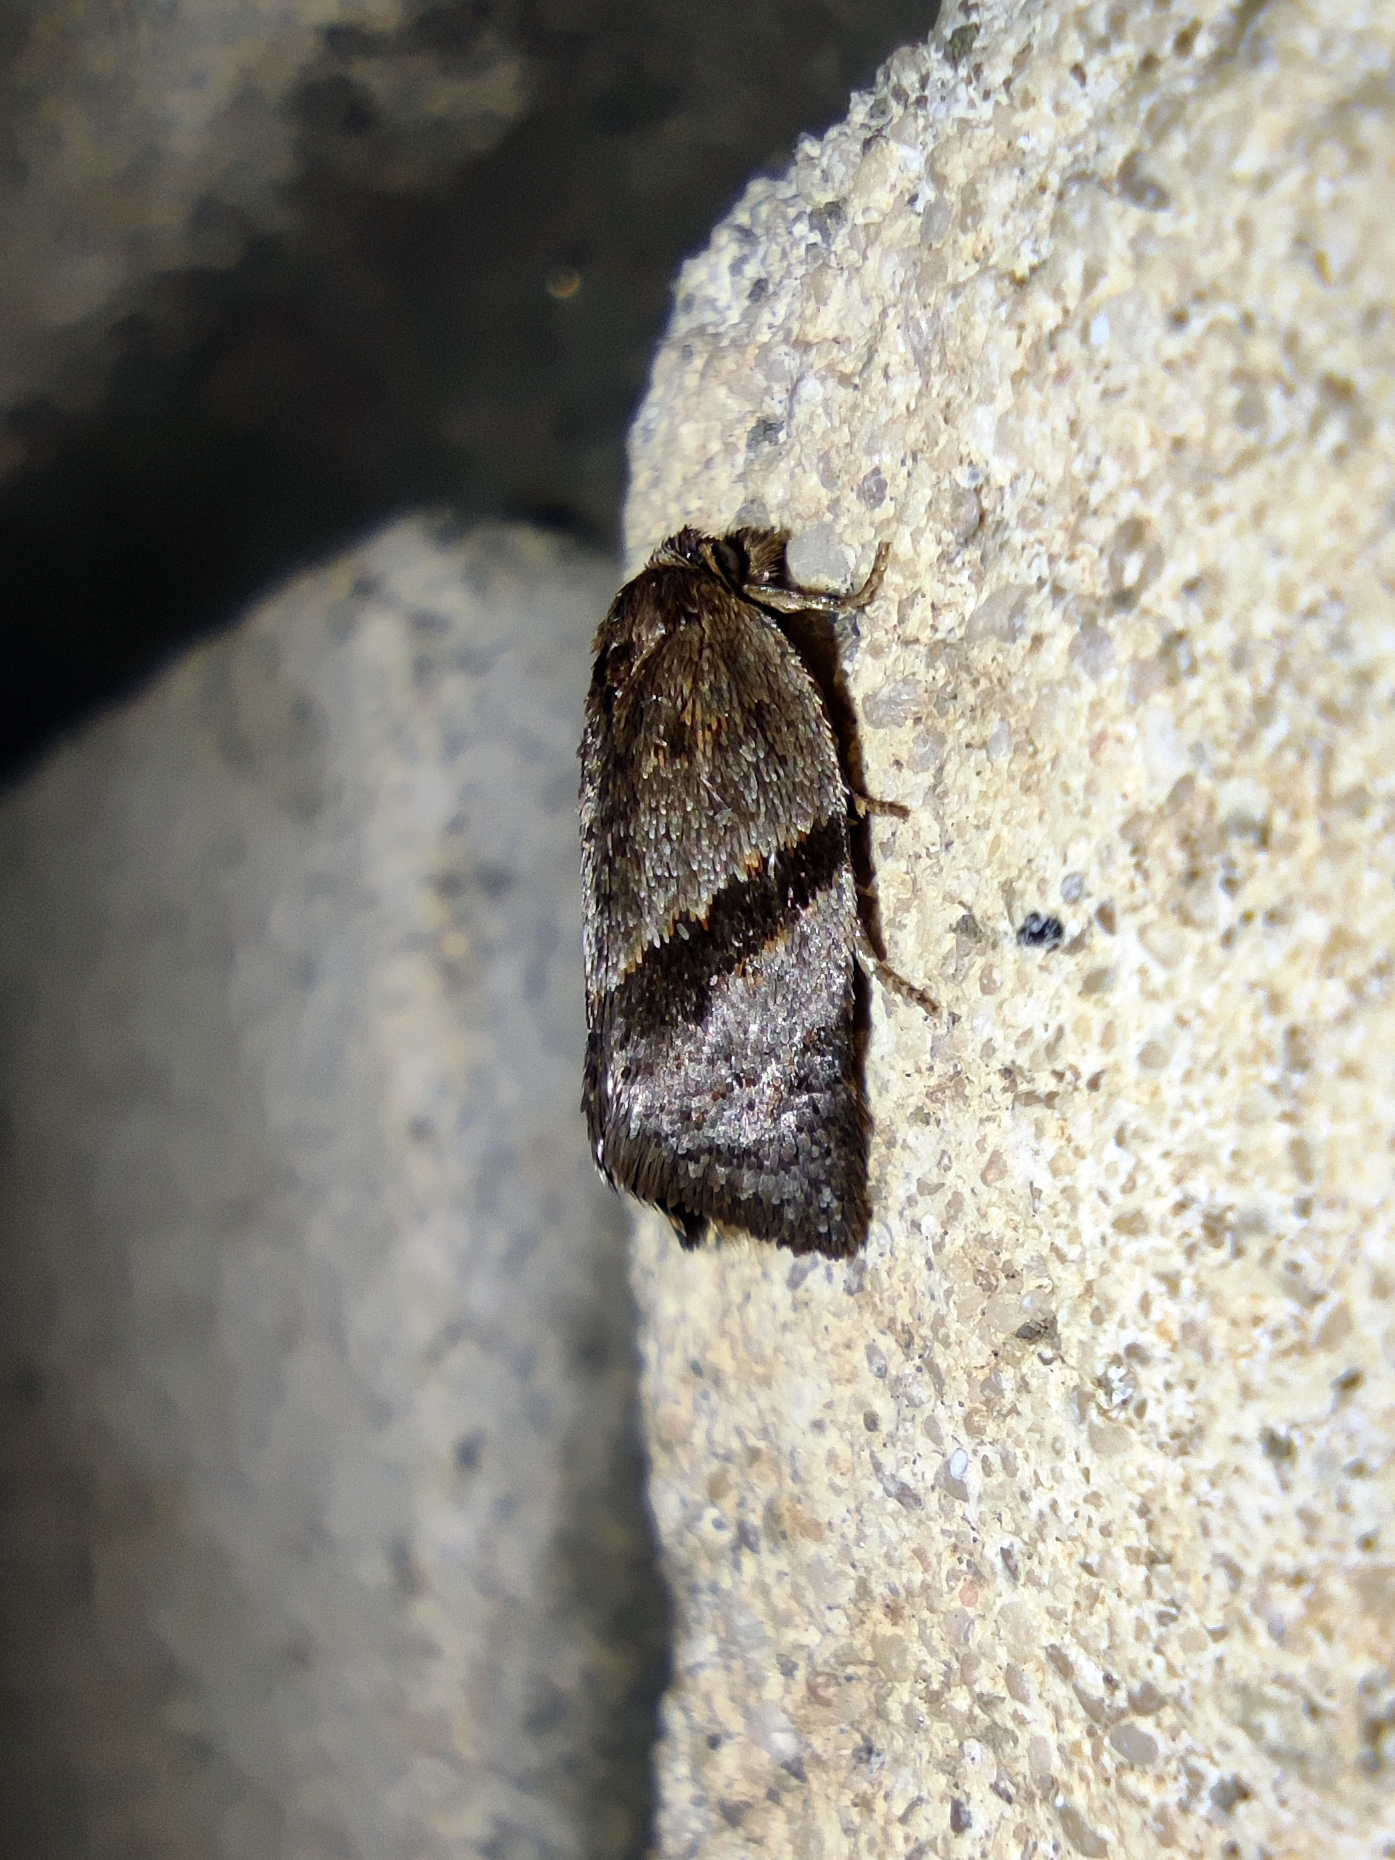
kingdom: Animalia
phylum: Arthropoda
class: Insecta
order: Lepidoptera
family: Tortricidae
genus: Philedonides
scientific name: Philedonides lunana
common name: Heath twist
